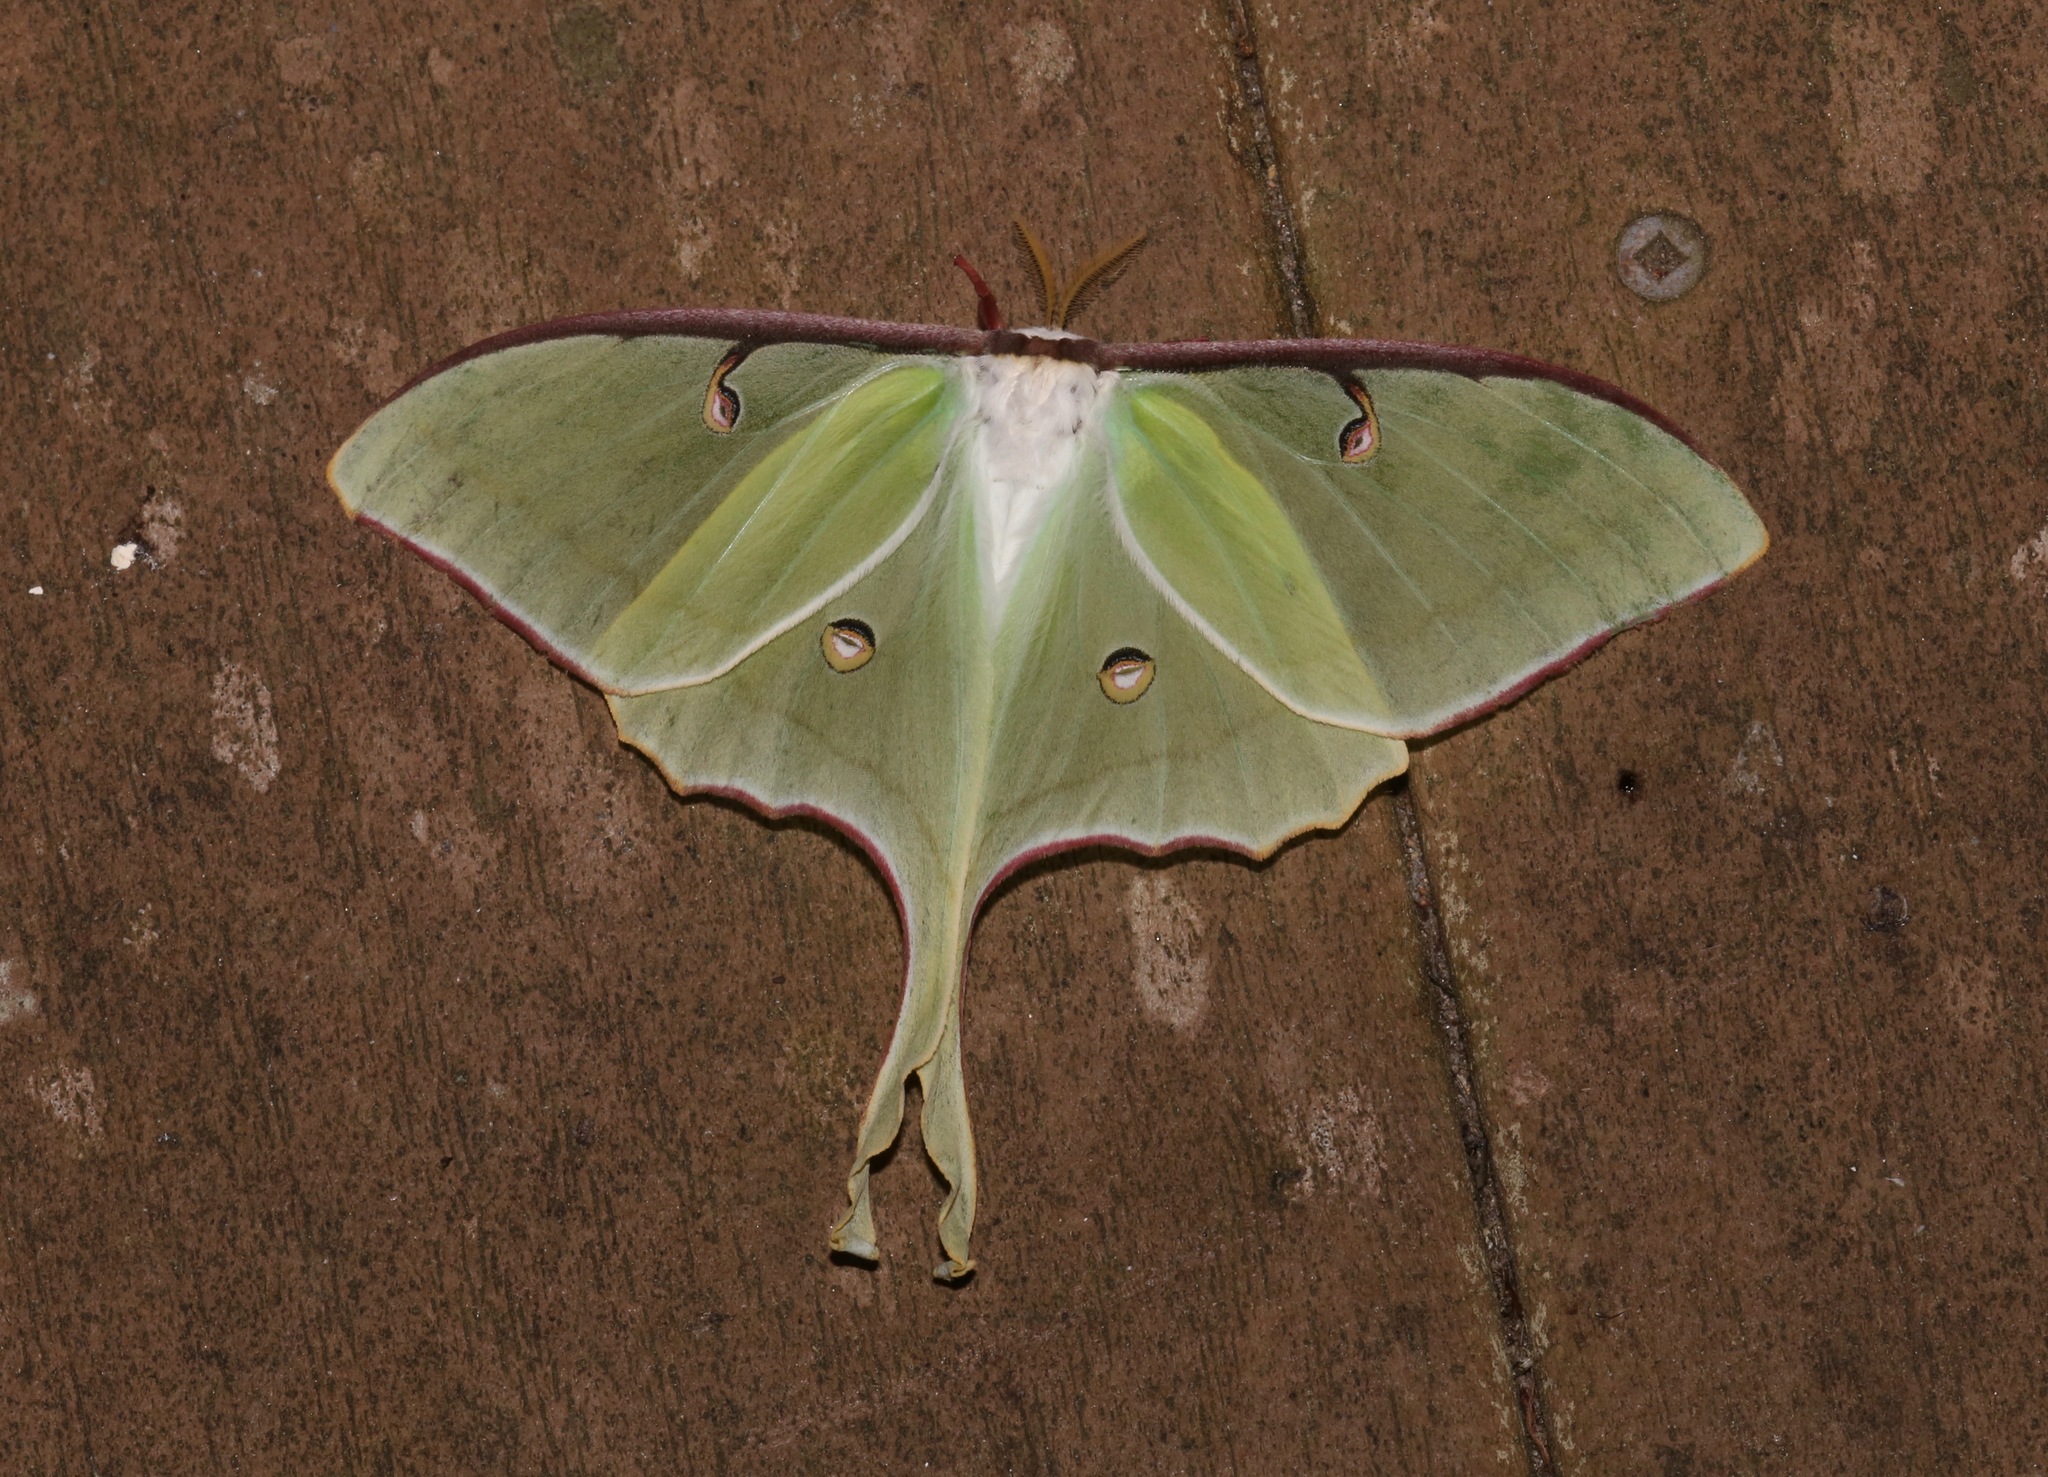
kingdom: Animalia
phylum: Arthropoda
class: Insecta
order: Lepidoptera
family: Saturniidae
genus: Actias
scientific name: Actias luna
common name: Luna moth
